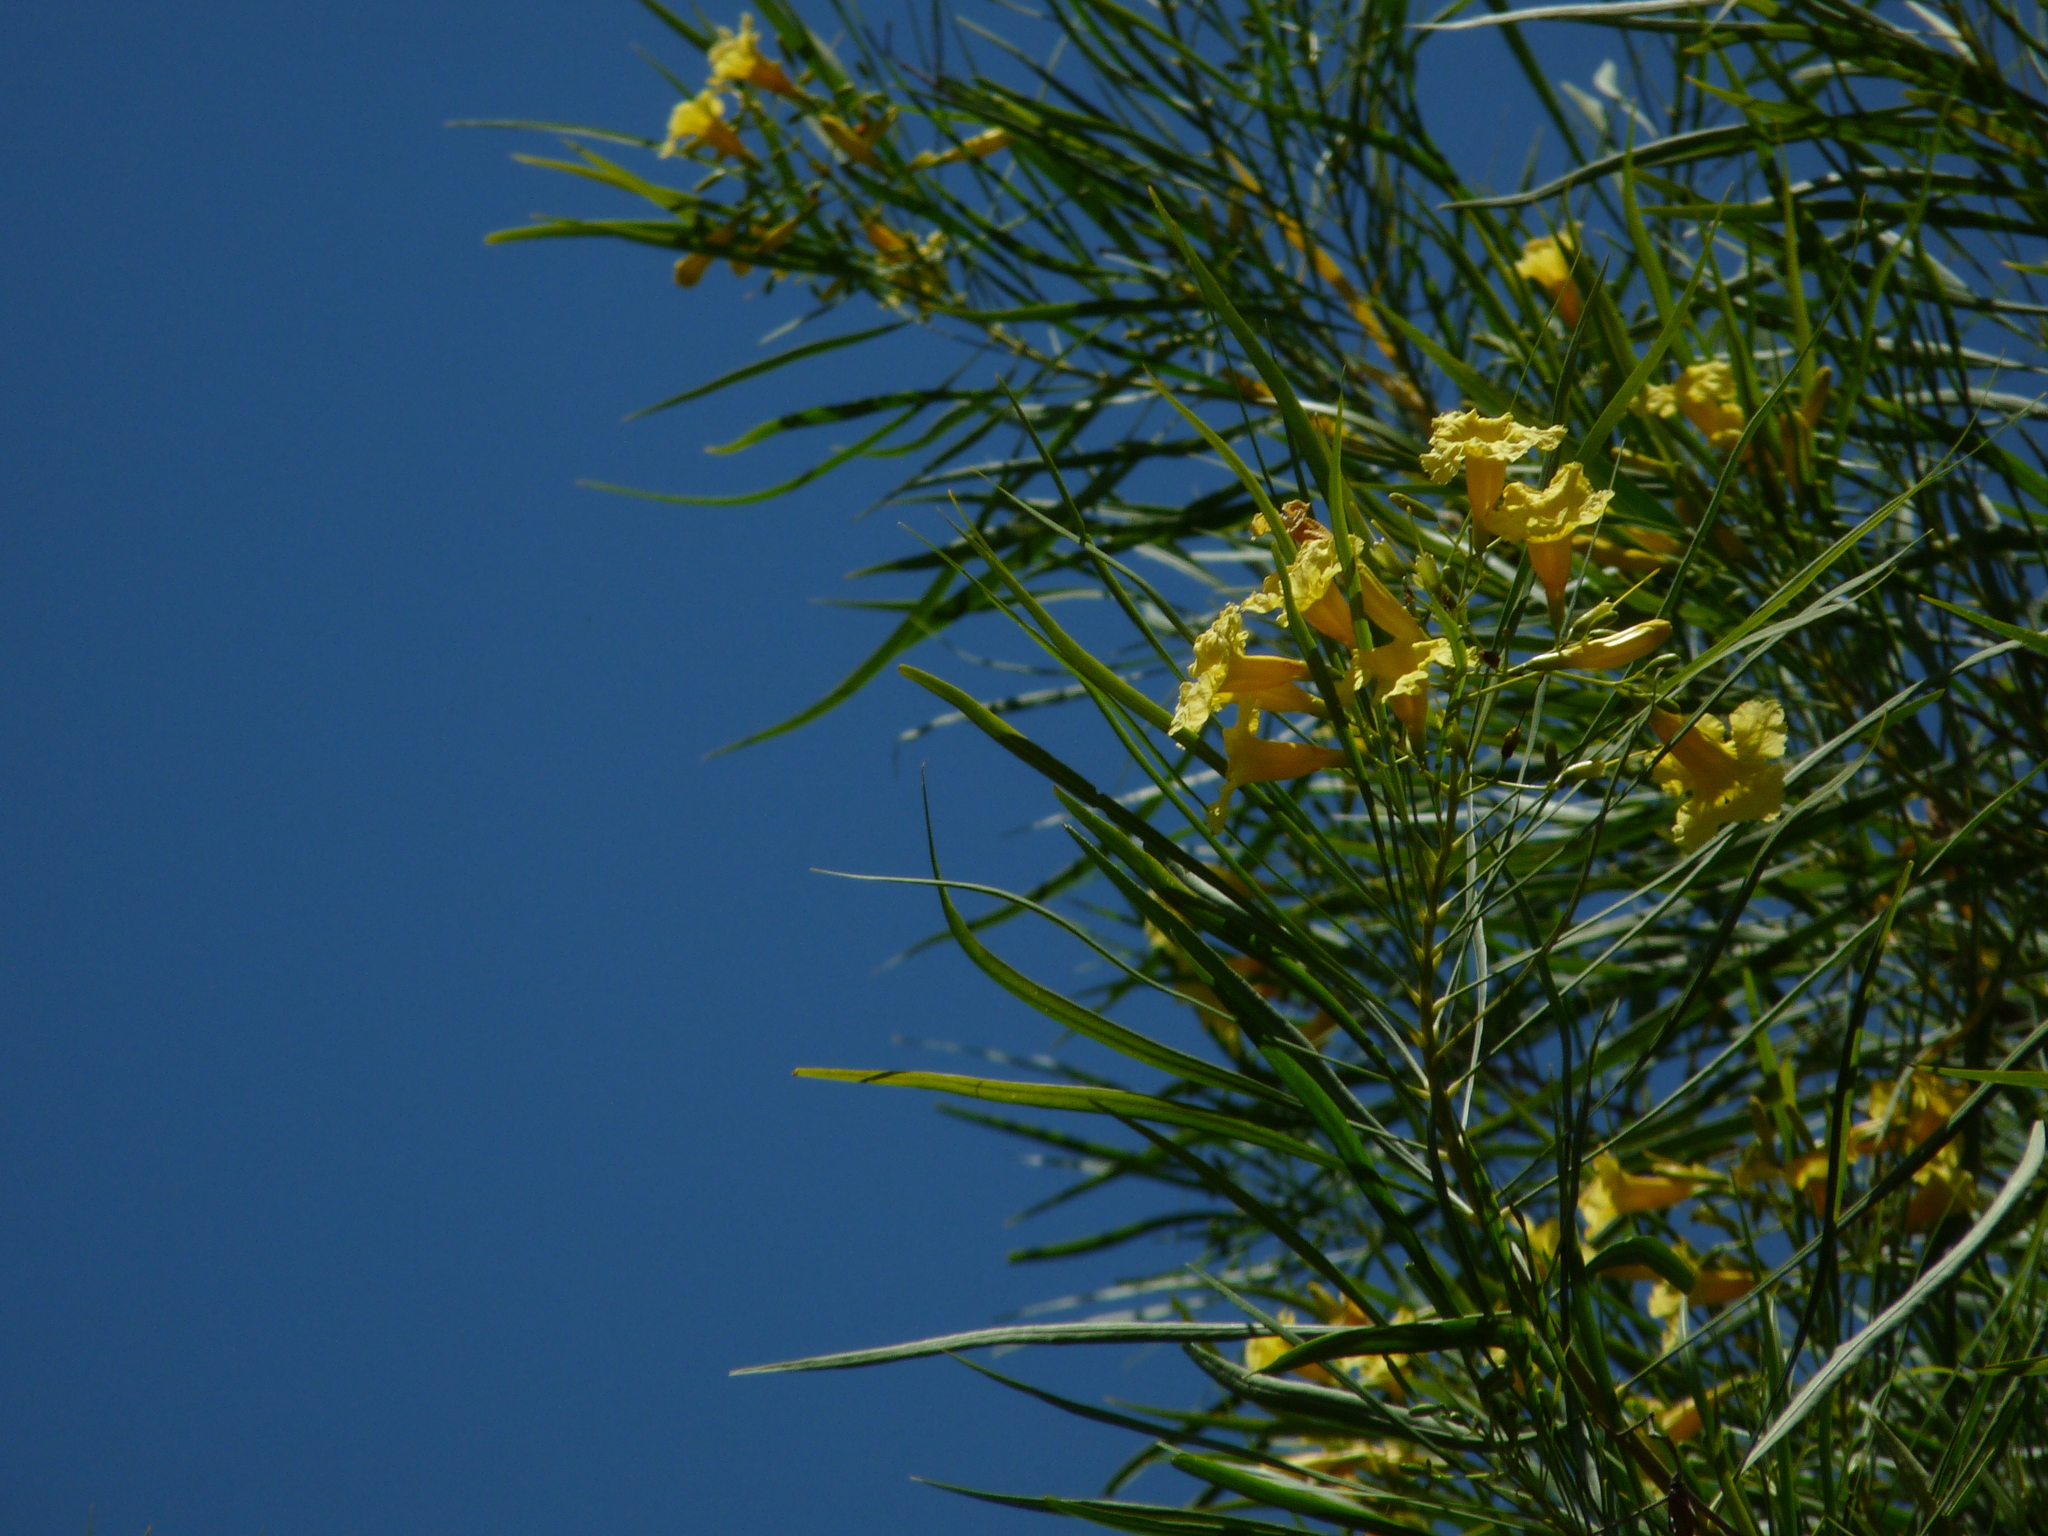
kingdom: Plantae
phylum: Tracheophyta
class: Magnoliopsida
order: Lamiales
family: Bignoniaceae
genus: Astianthus
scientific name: Astianthus viminalis
